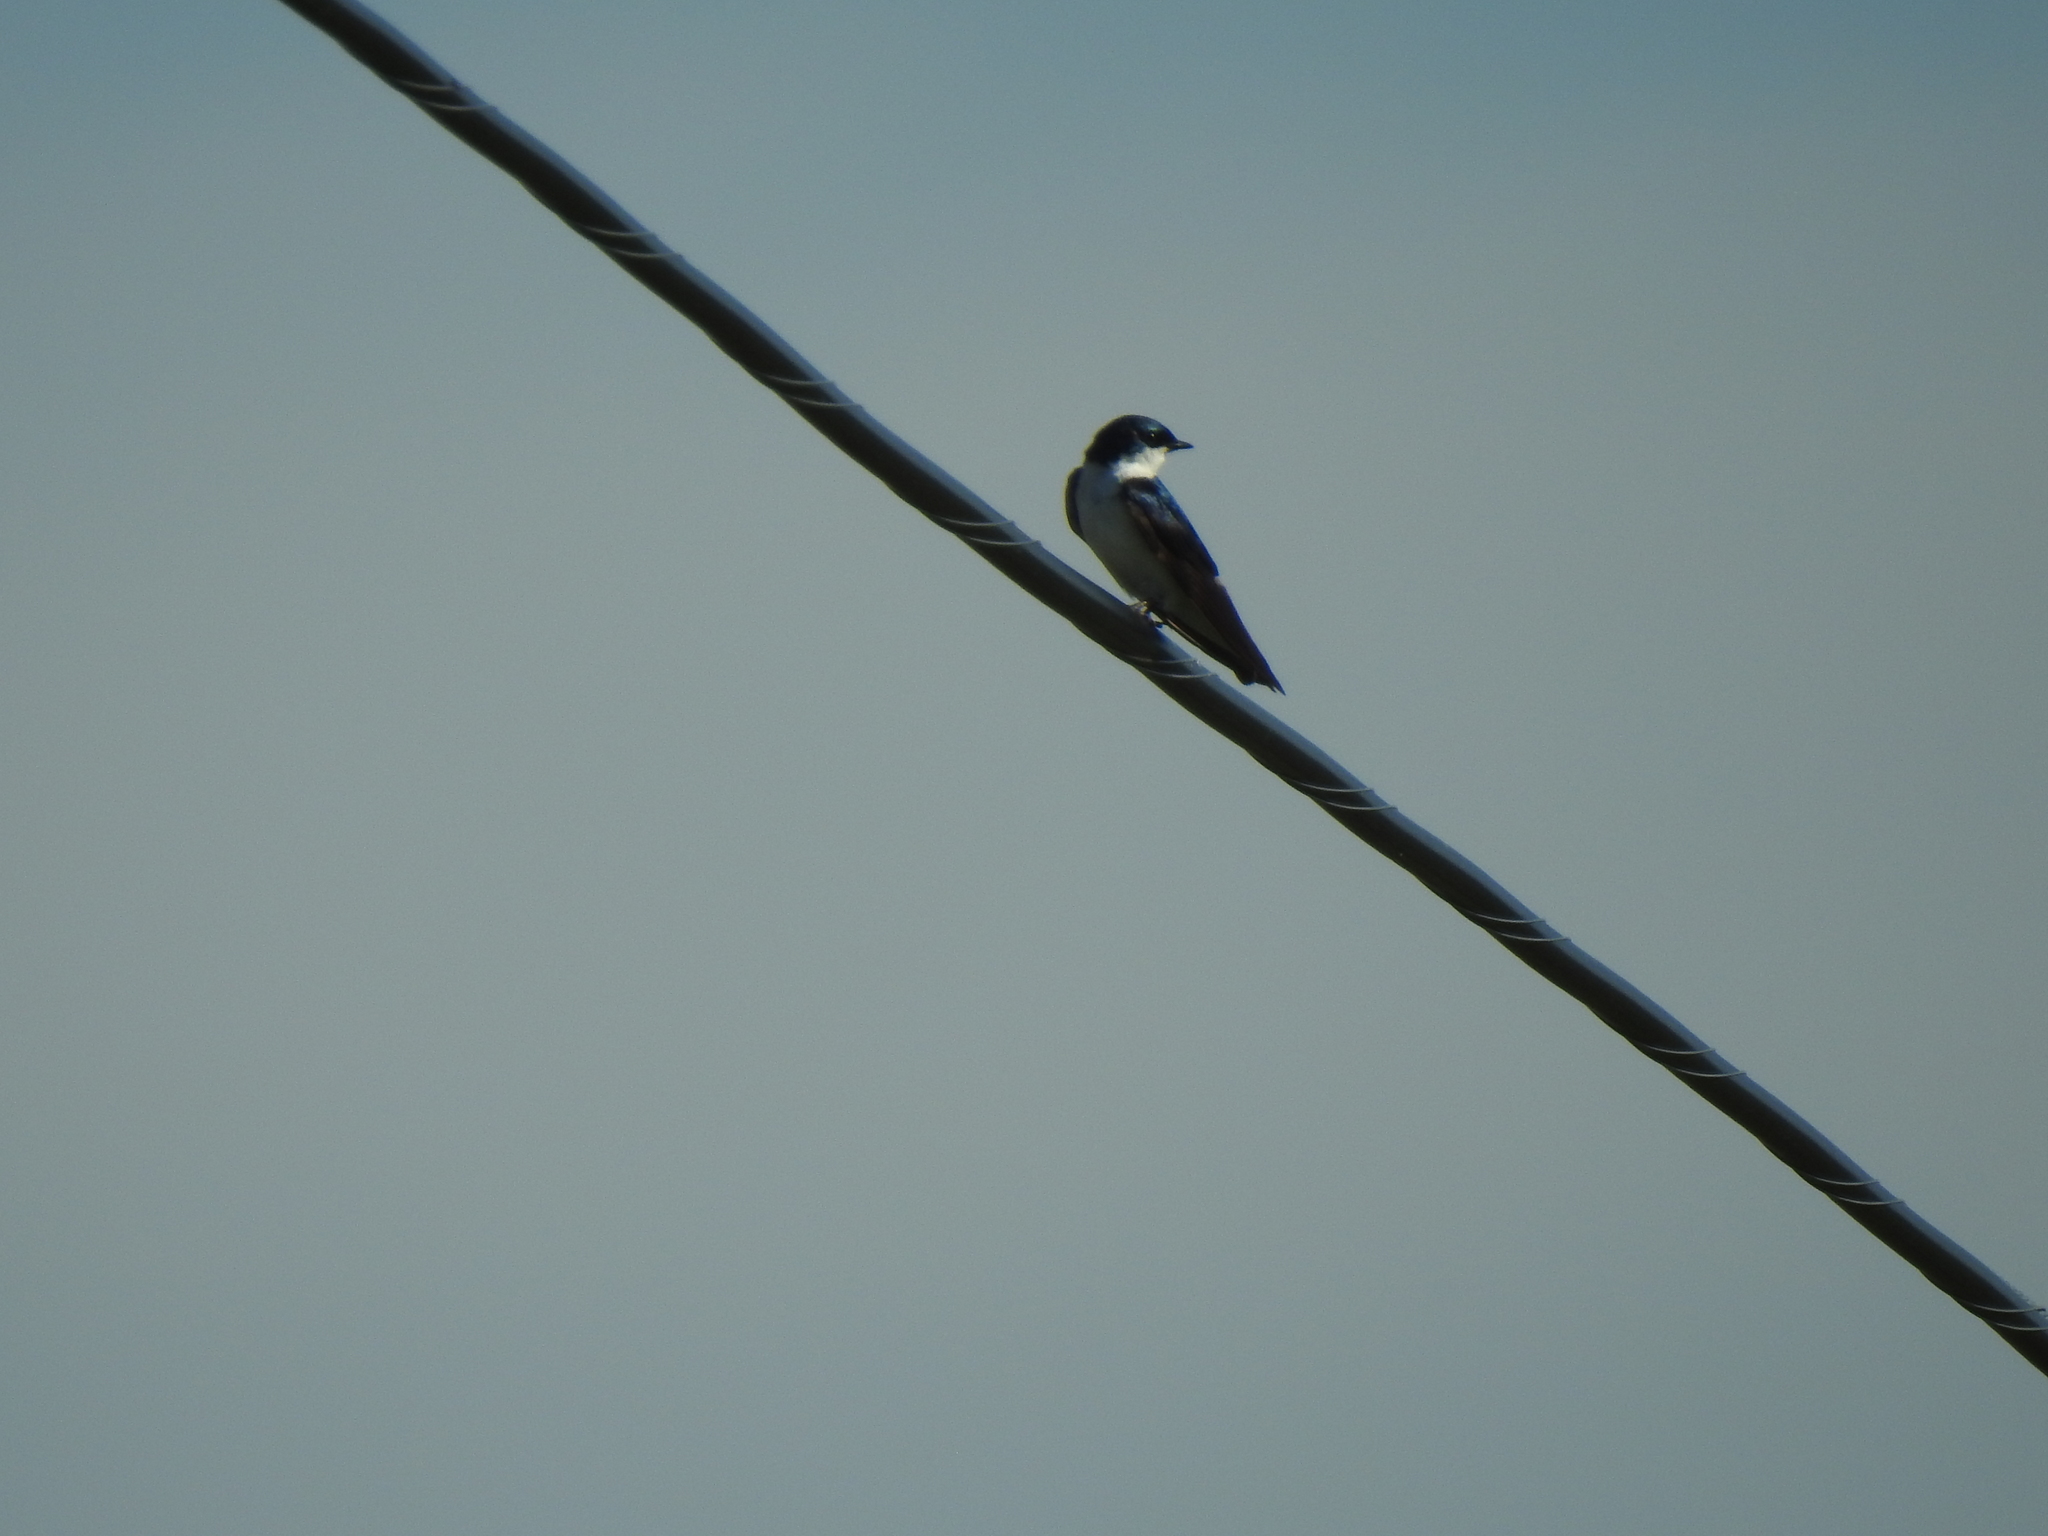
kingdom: Animalia
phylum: Chordata
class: Aves
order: Passeriformes
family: Hirundinidae
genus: Tachycineta
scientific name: Tachycineta bicolor
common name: Tree swallow
